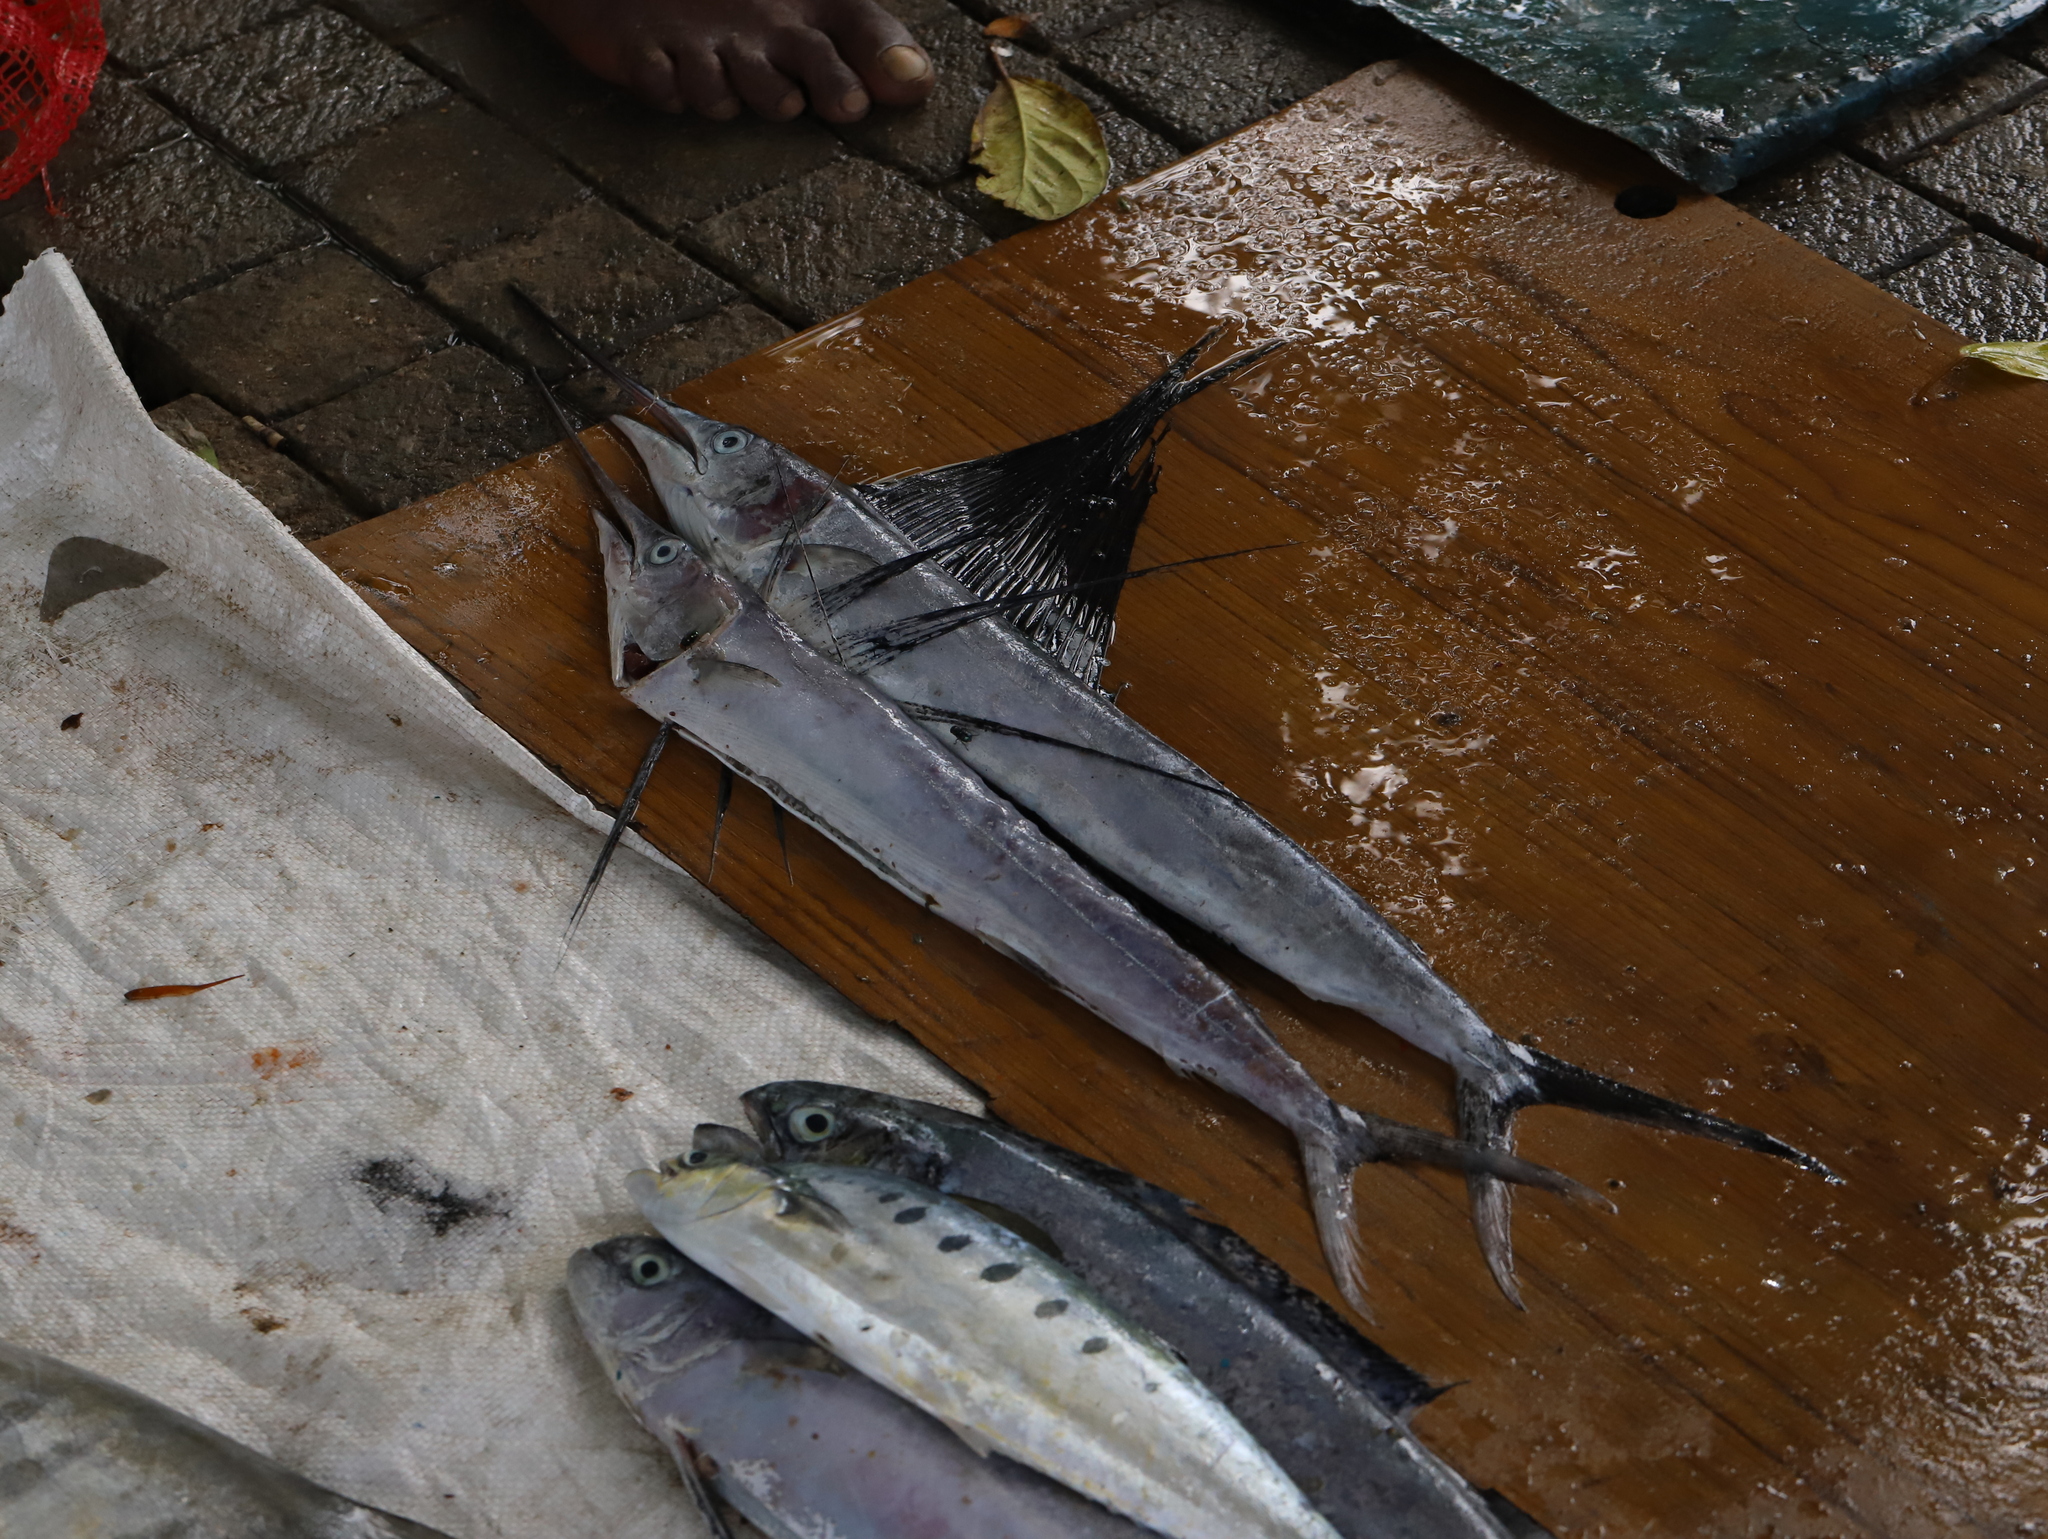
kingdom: Animalia
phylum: Chordata
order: Perciformes
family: Istiophoridae
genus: Istiophorus
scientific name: Istiophorus platypterus
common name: Sailfish
